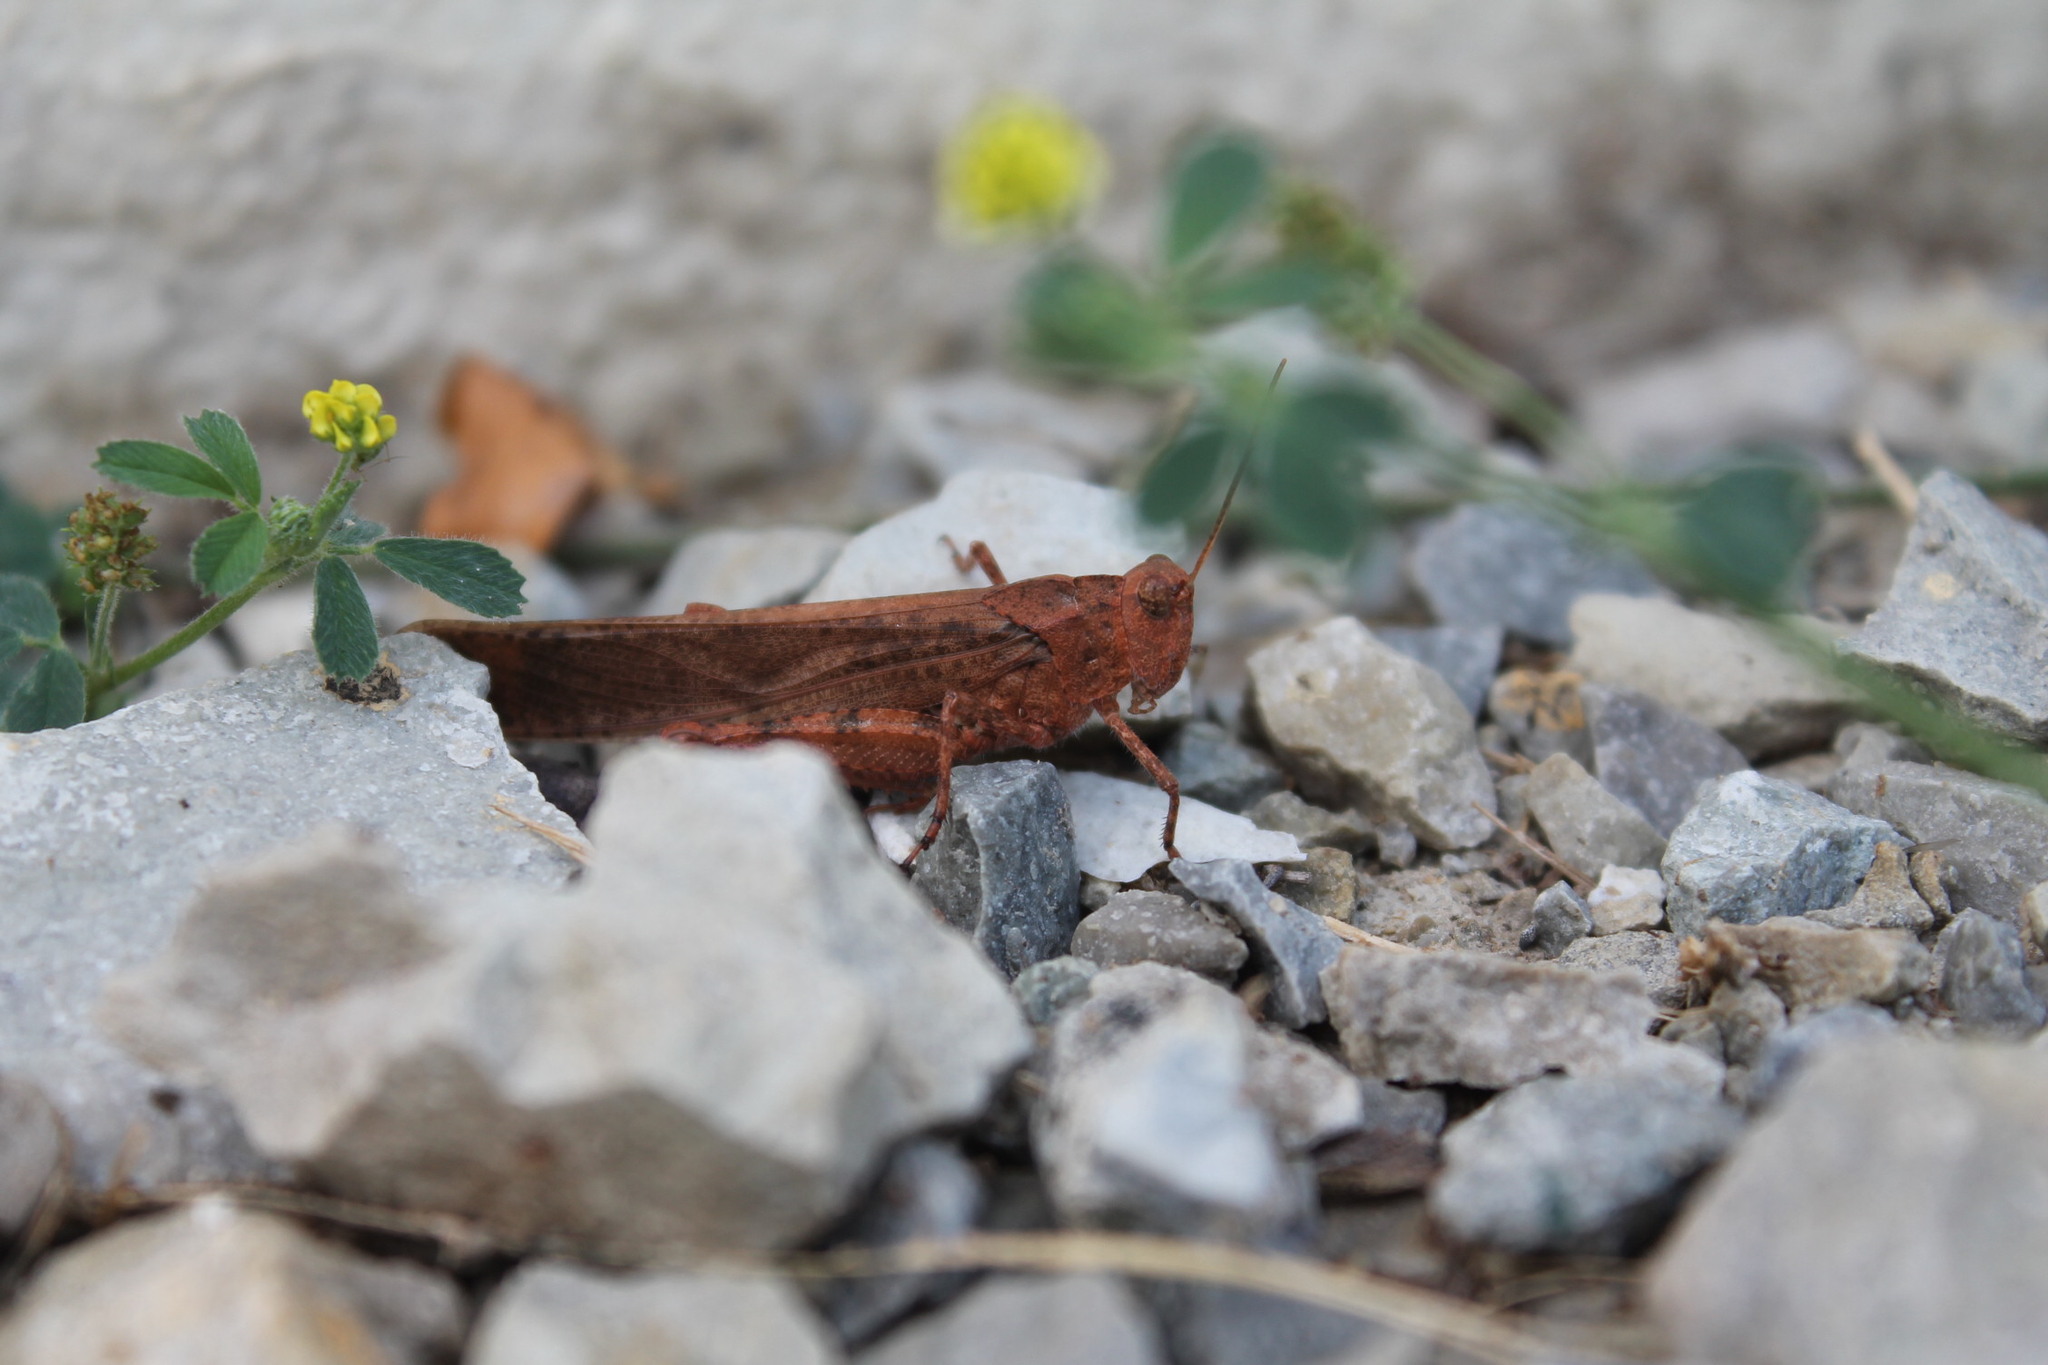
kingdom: Animalia
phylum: Arthropoda
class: Insecta
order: Orthoptera
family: Acrididae
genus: Dissosteira
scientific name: Dissosteira carolina
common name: Carolina grasshopper
